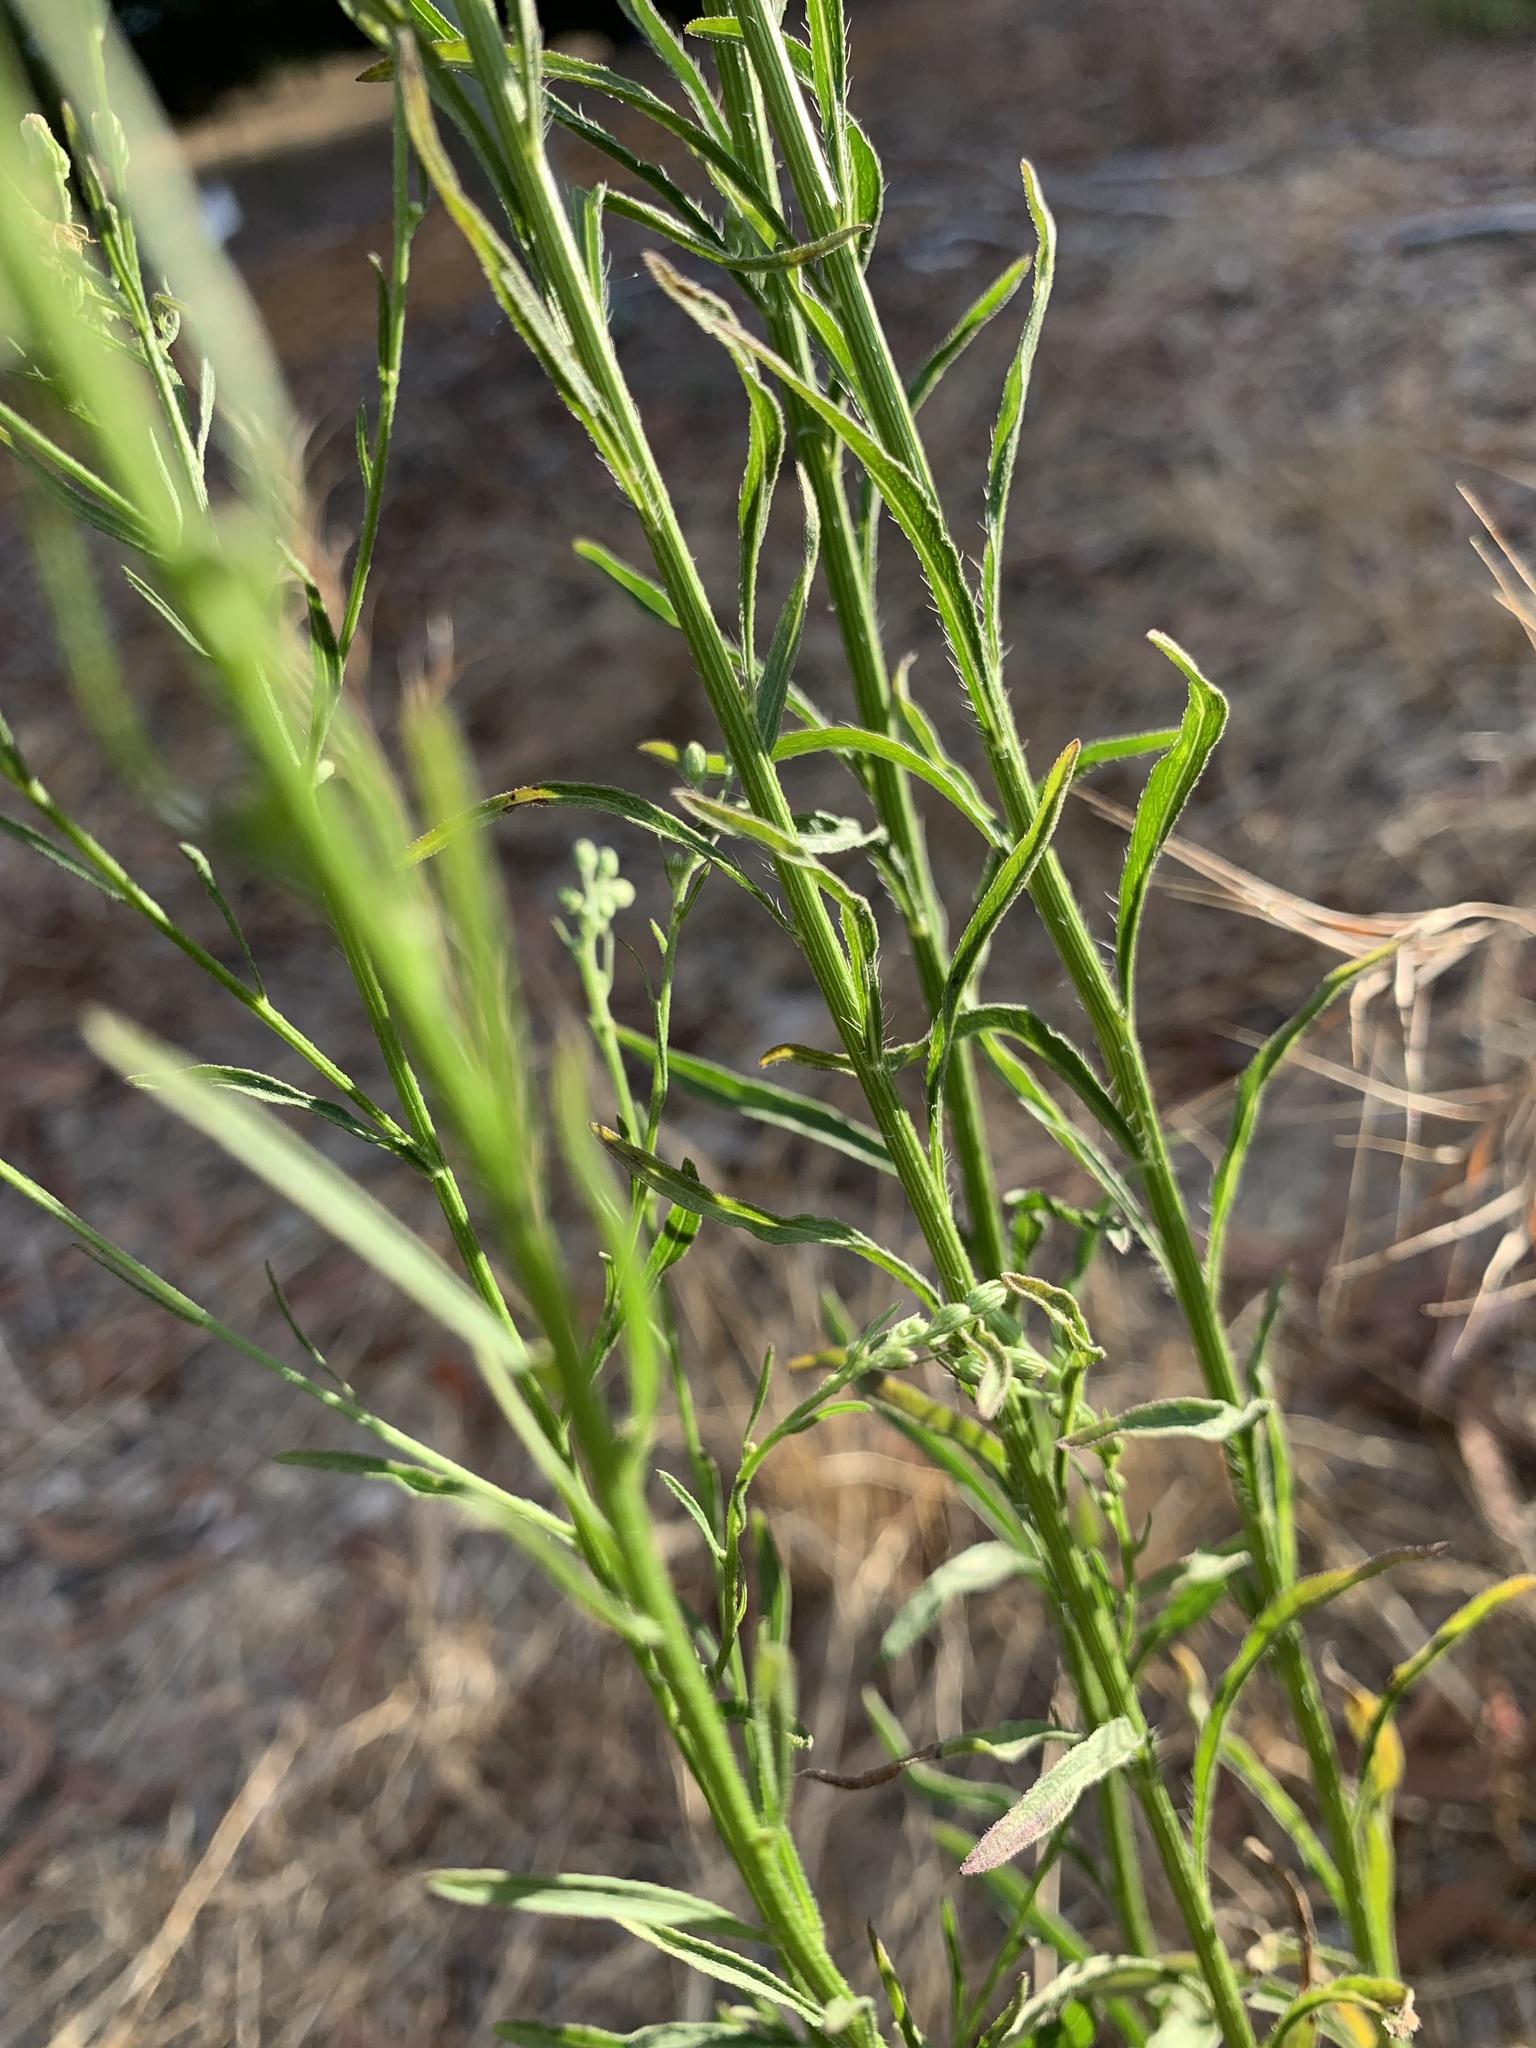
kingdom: Plantae
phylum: Tracheophyta
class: Magnoliopsida
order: Asterales
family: Asteraceae
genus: Erigeron
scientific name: Erigeron canadensis
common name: Canadian fleabane
